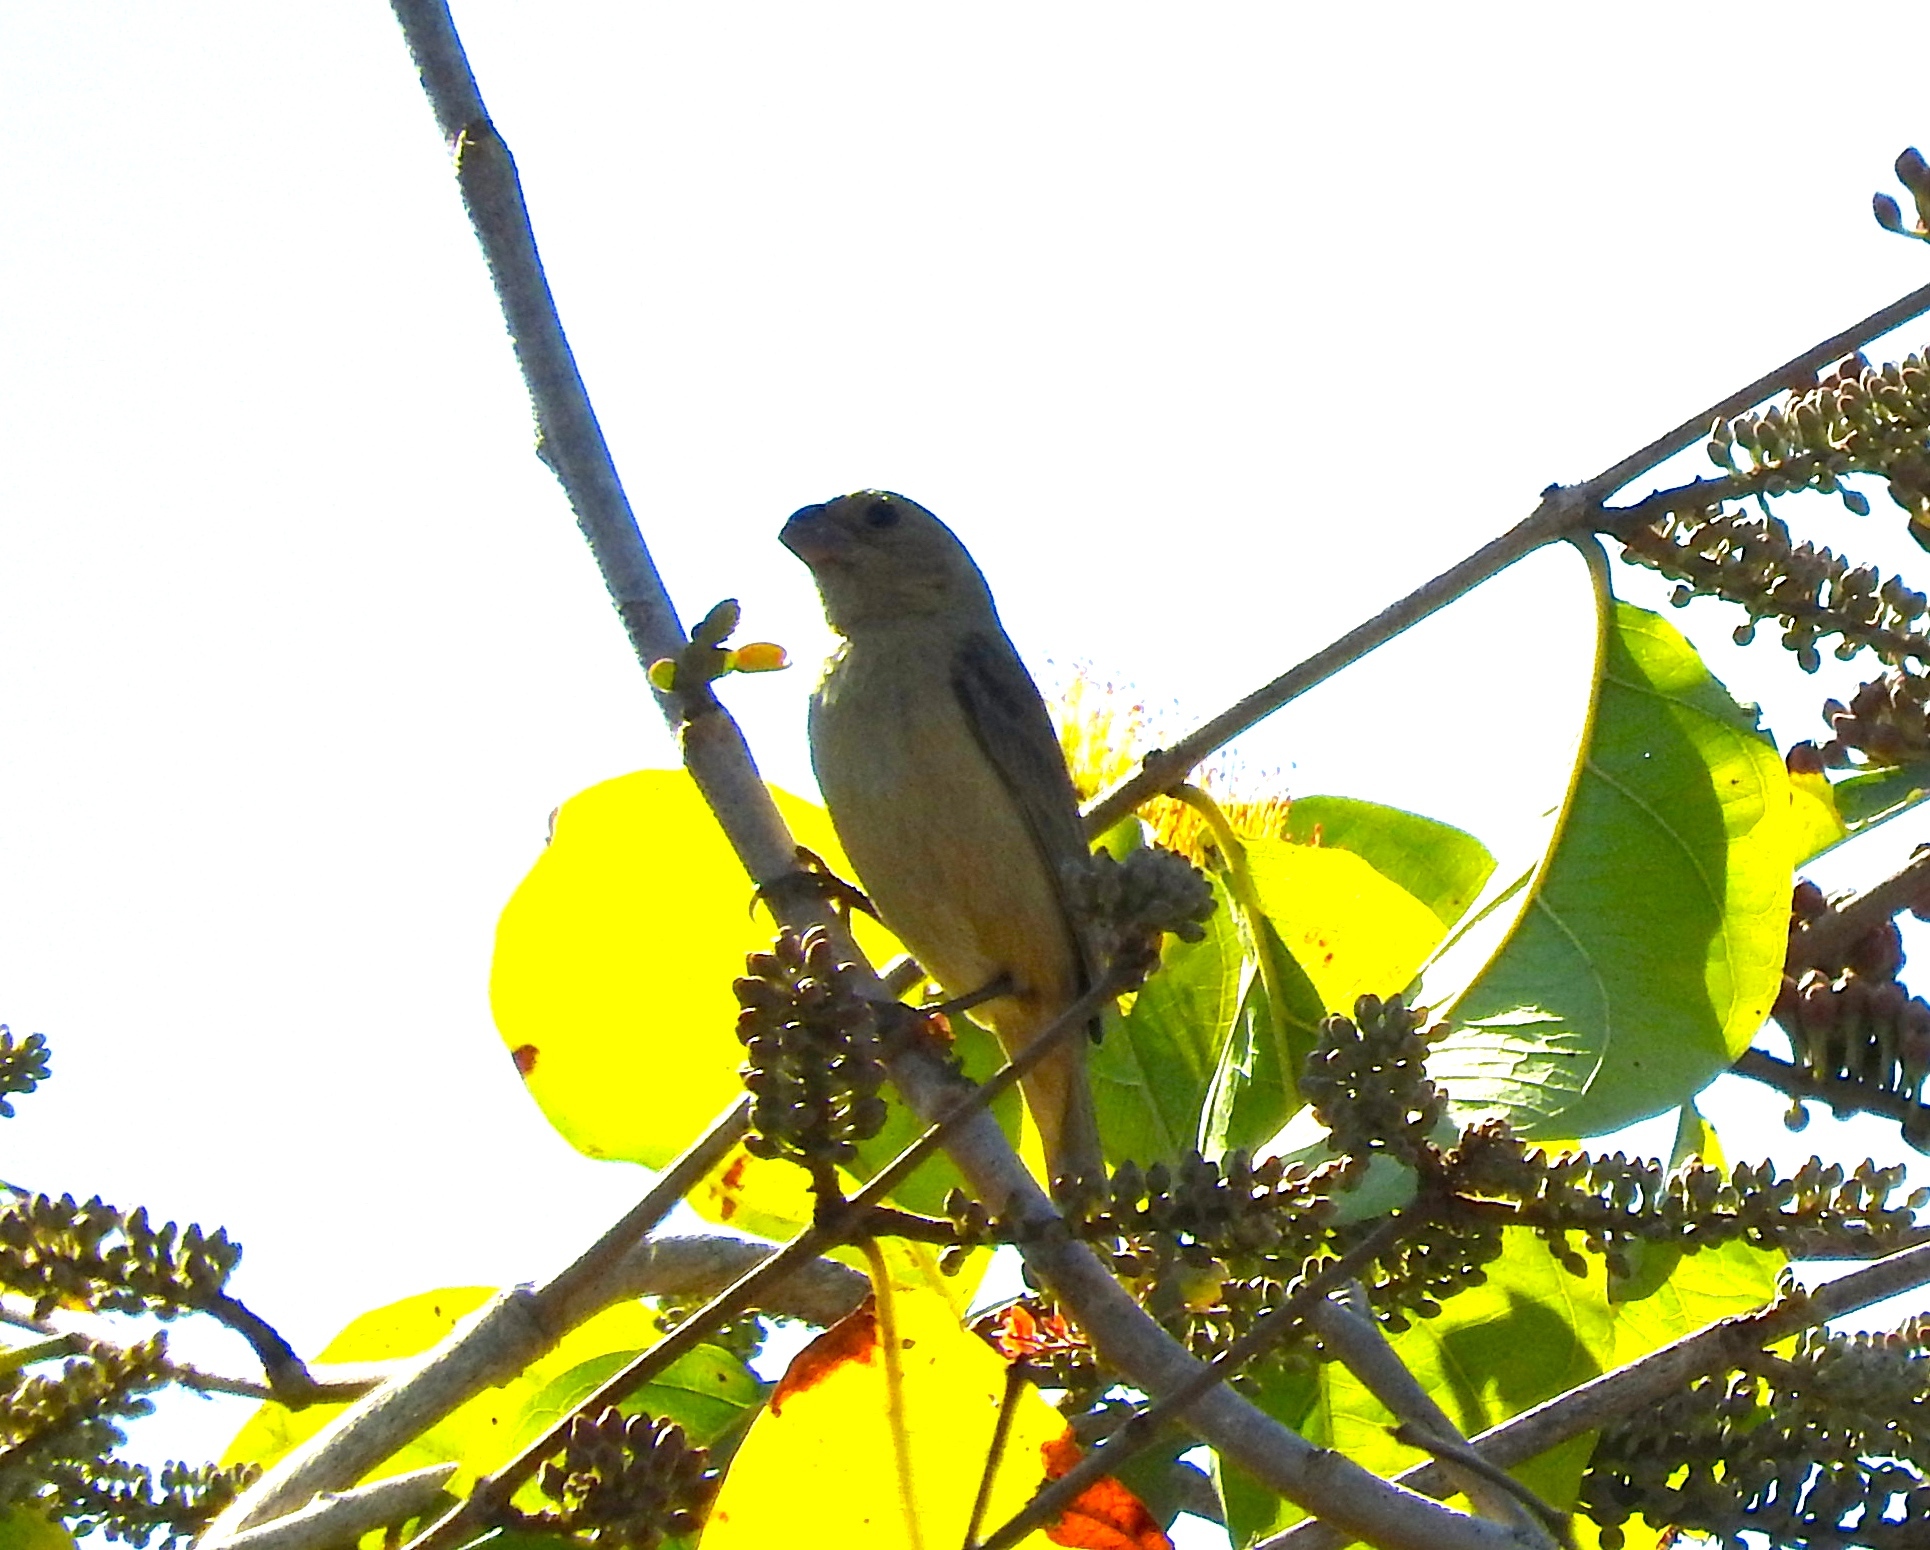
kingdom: Animalia
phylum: Chordata
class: Aves
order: Passeriformes
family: Thraupidae
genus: Sporophila
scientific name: Sporophila torqueola
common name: White-collared seedeater
